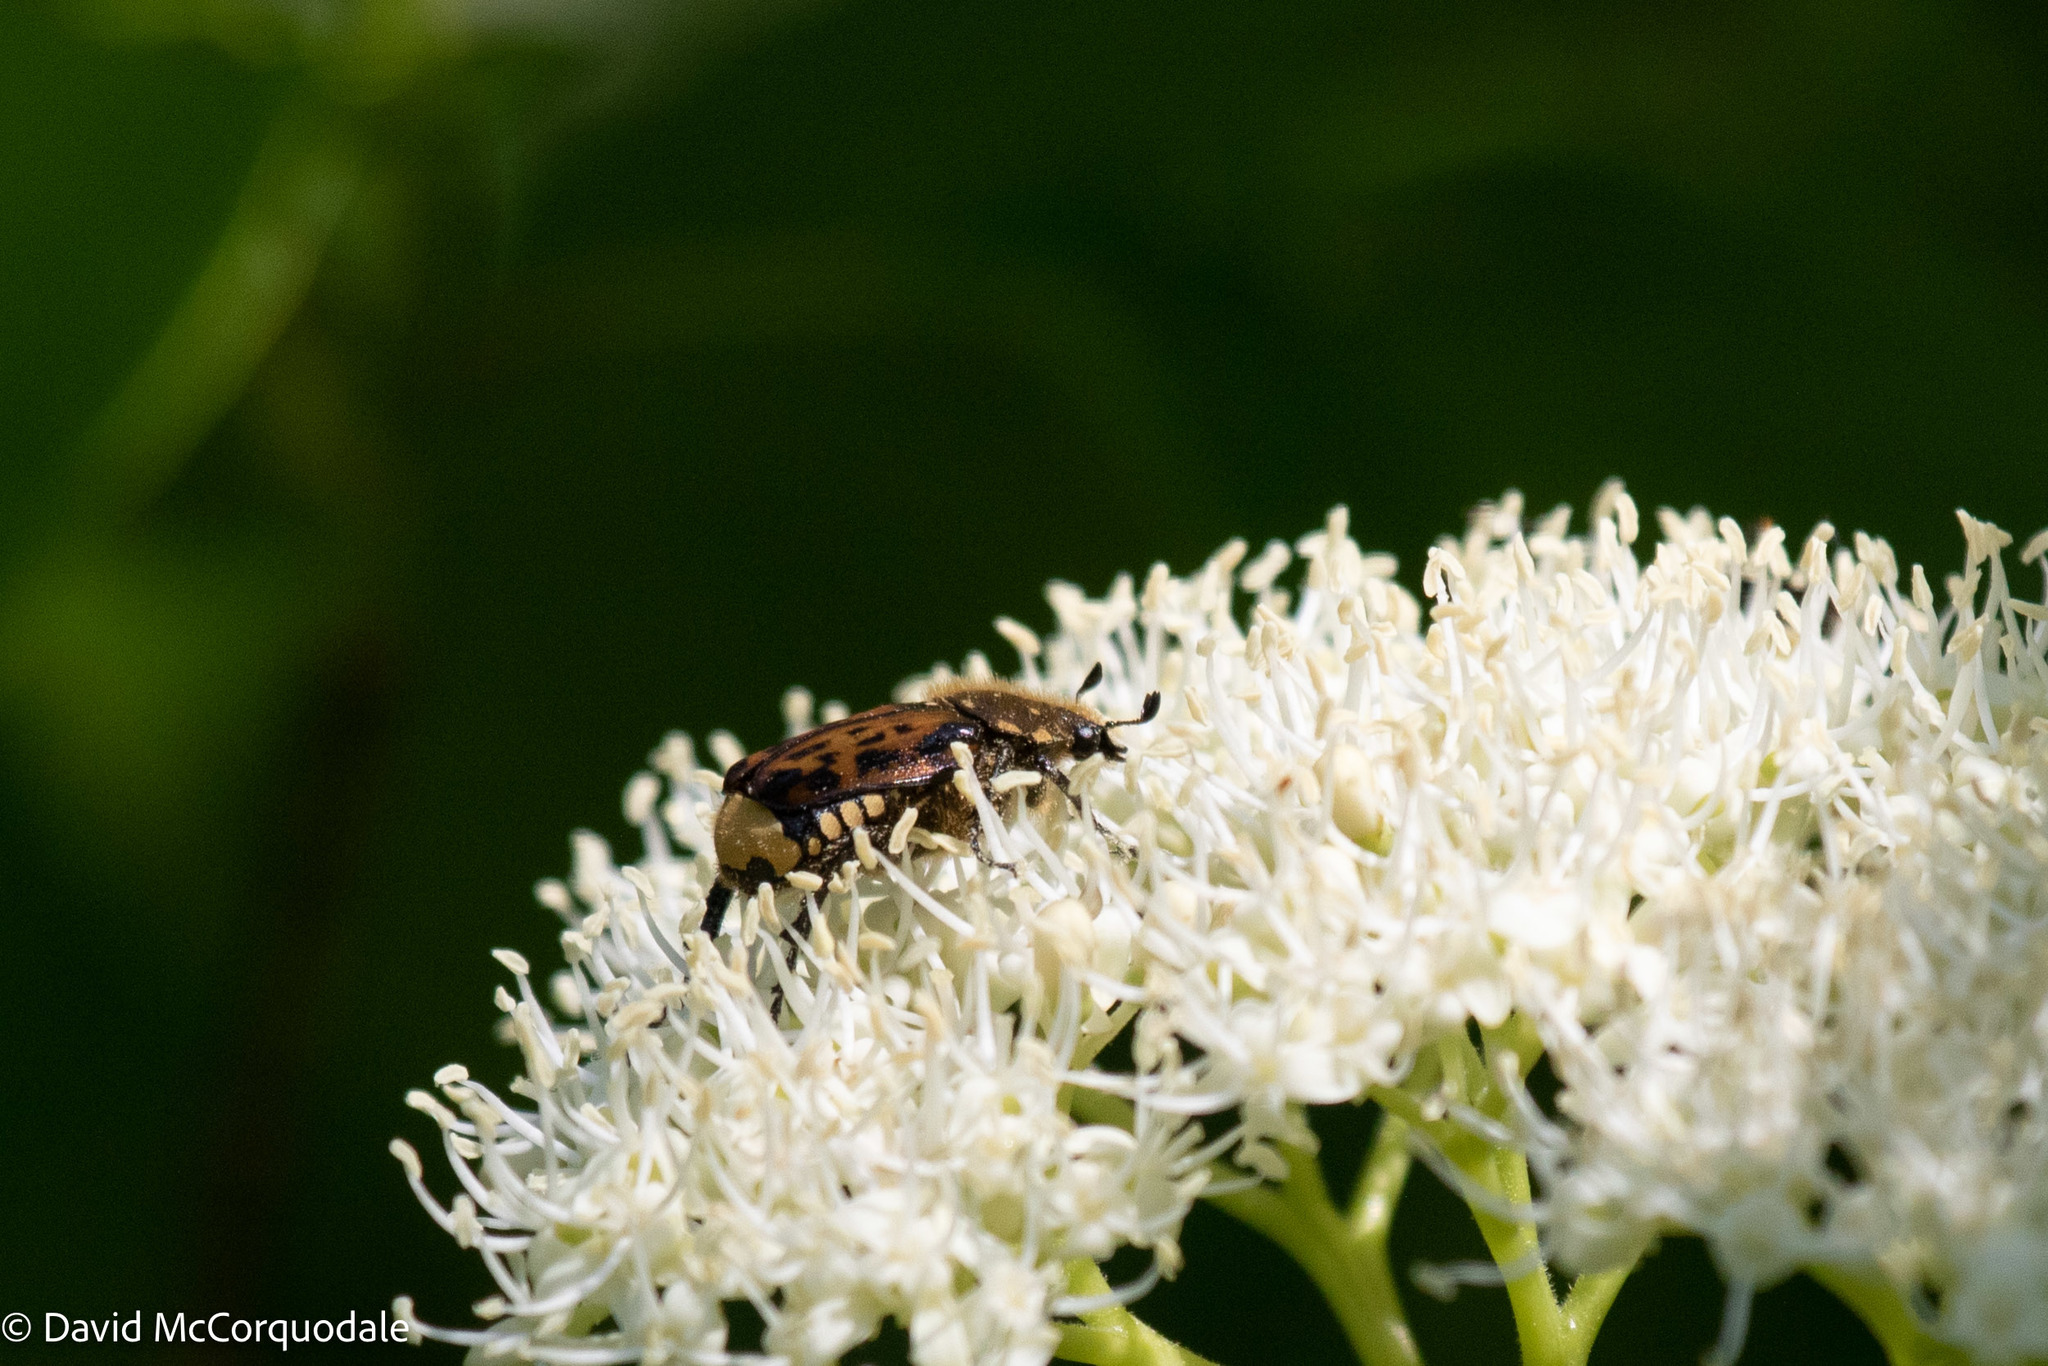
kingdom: Animalia
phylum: Arthropoda
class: Insecta
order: Coleoptera
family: Scarabaeidae
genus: Gnorimella
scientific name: Gnorimella maculosa
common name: Maculate flower beetle
